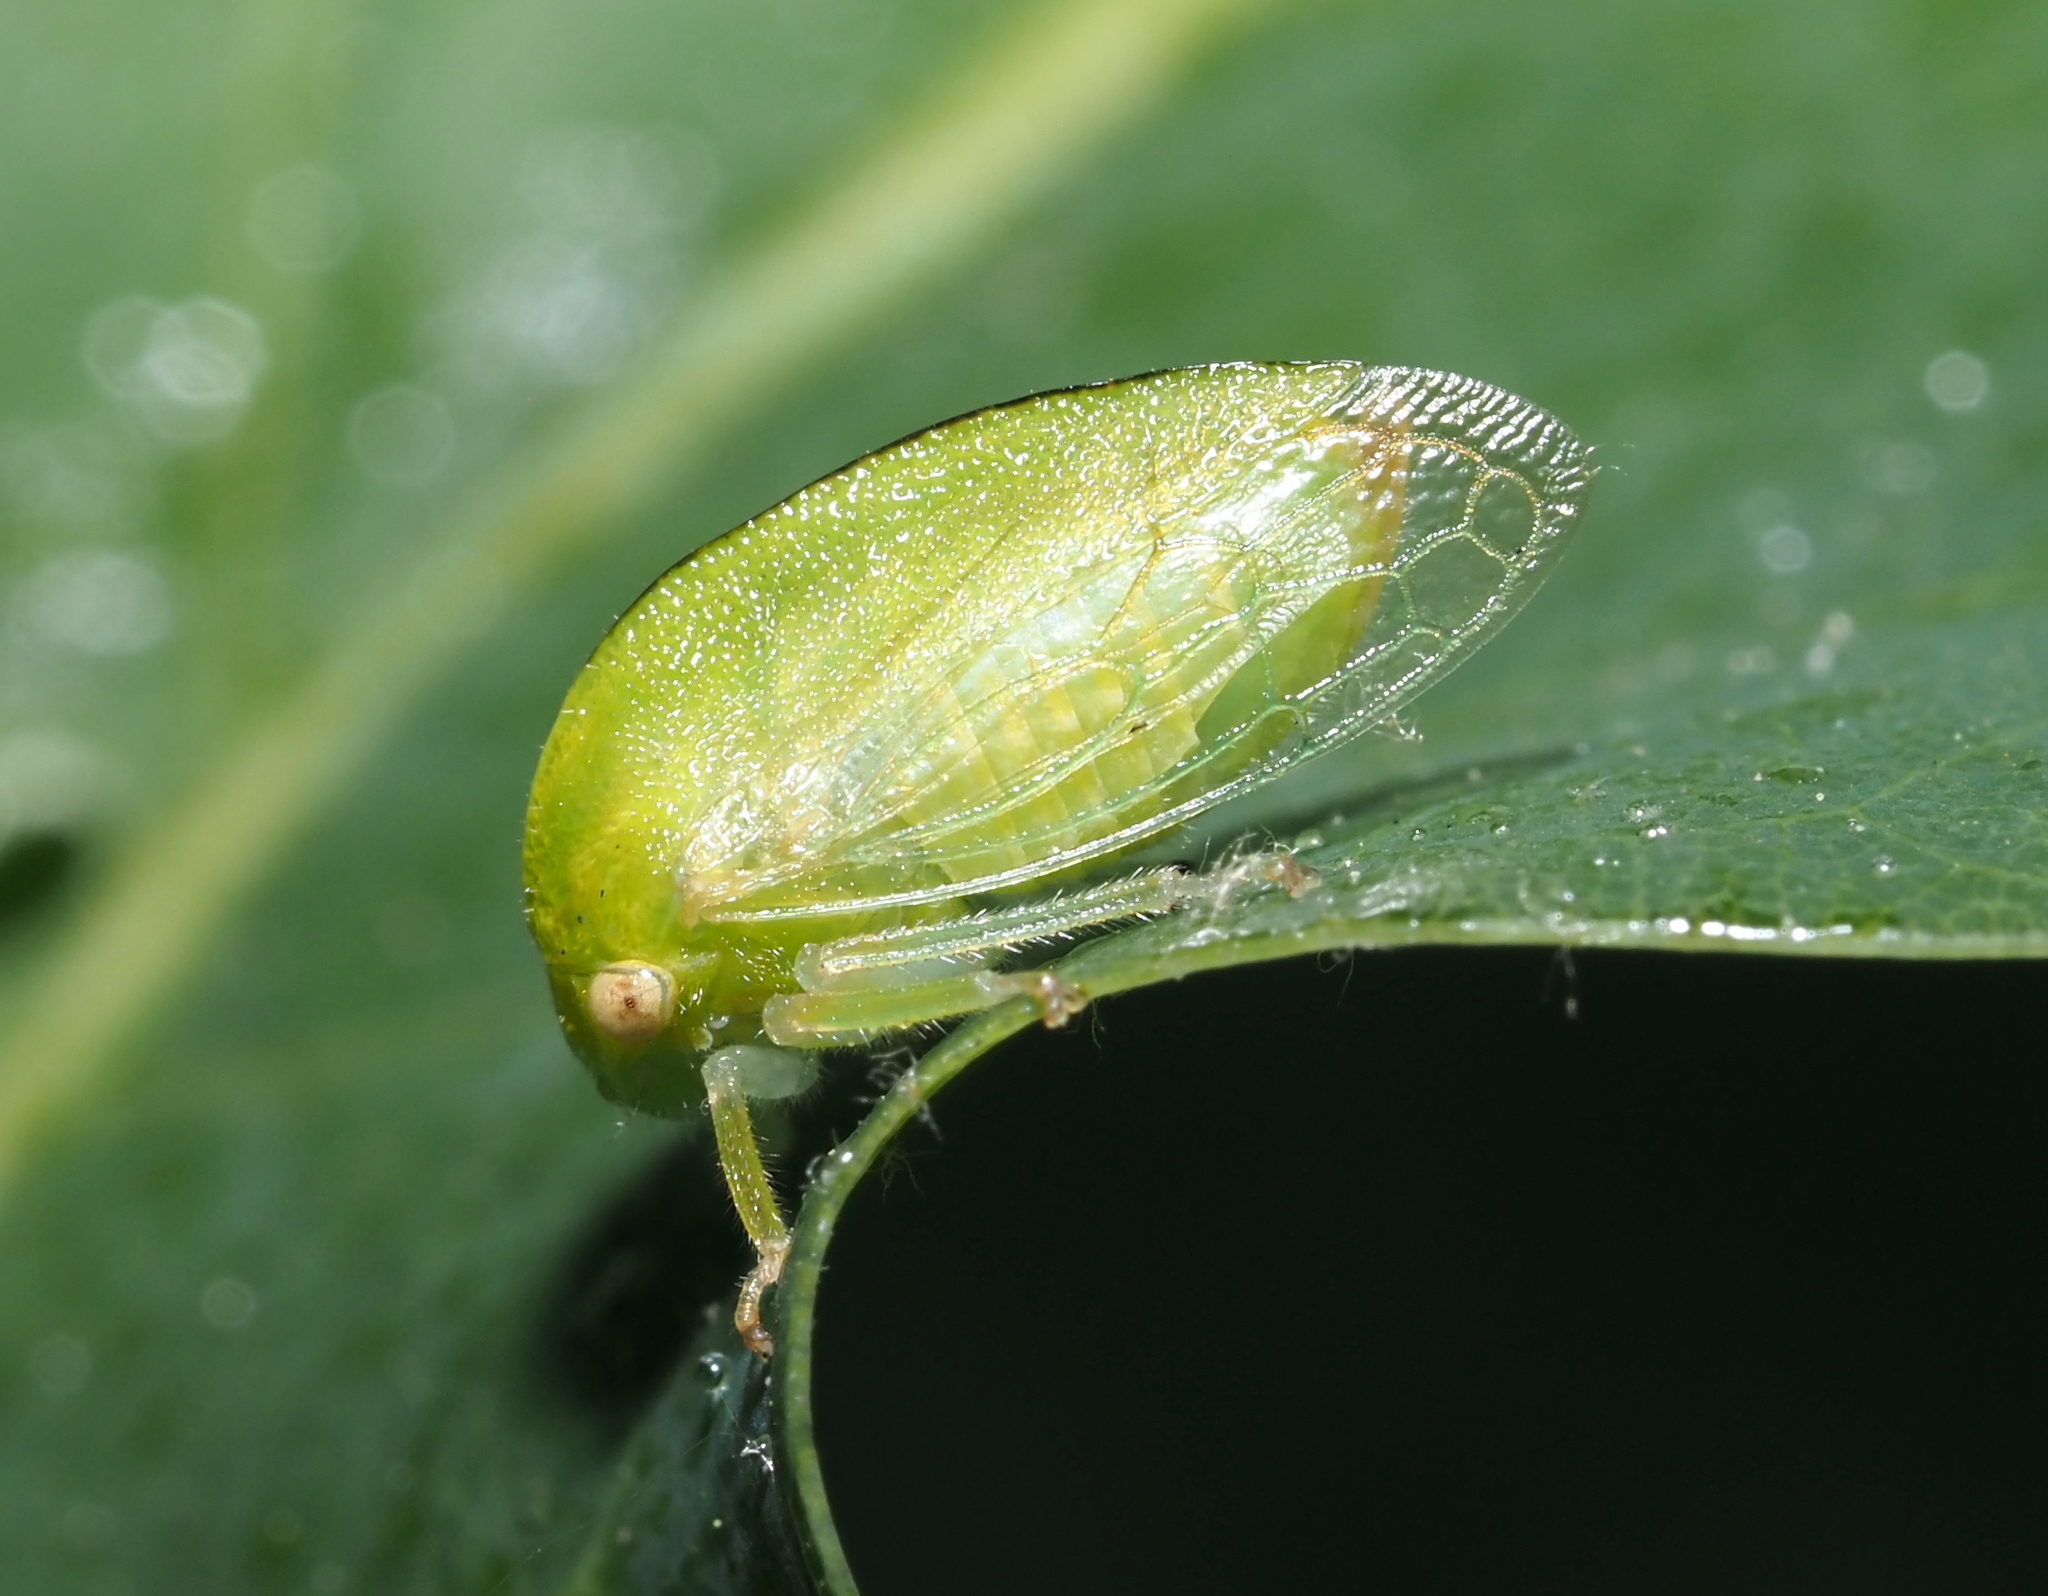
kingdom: Animalia
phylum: Arthropoda
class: Insecta
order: Hemiptera
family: Membracidae
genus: Atymna
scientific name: Atymna querci
